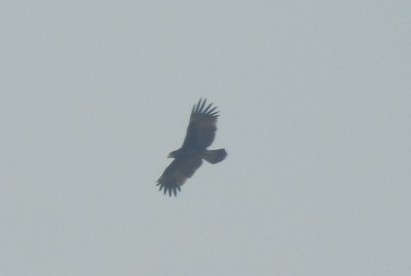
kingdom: Animalia
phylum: Chordata
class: Aves
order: Accipitriformes
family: Accipitridae
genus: Aquila
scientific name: Aquila clanga
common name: Greater spotted eagle
